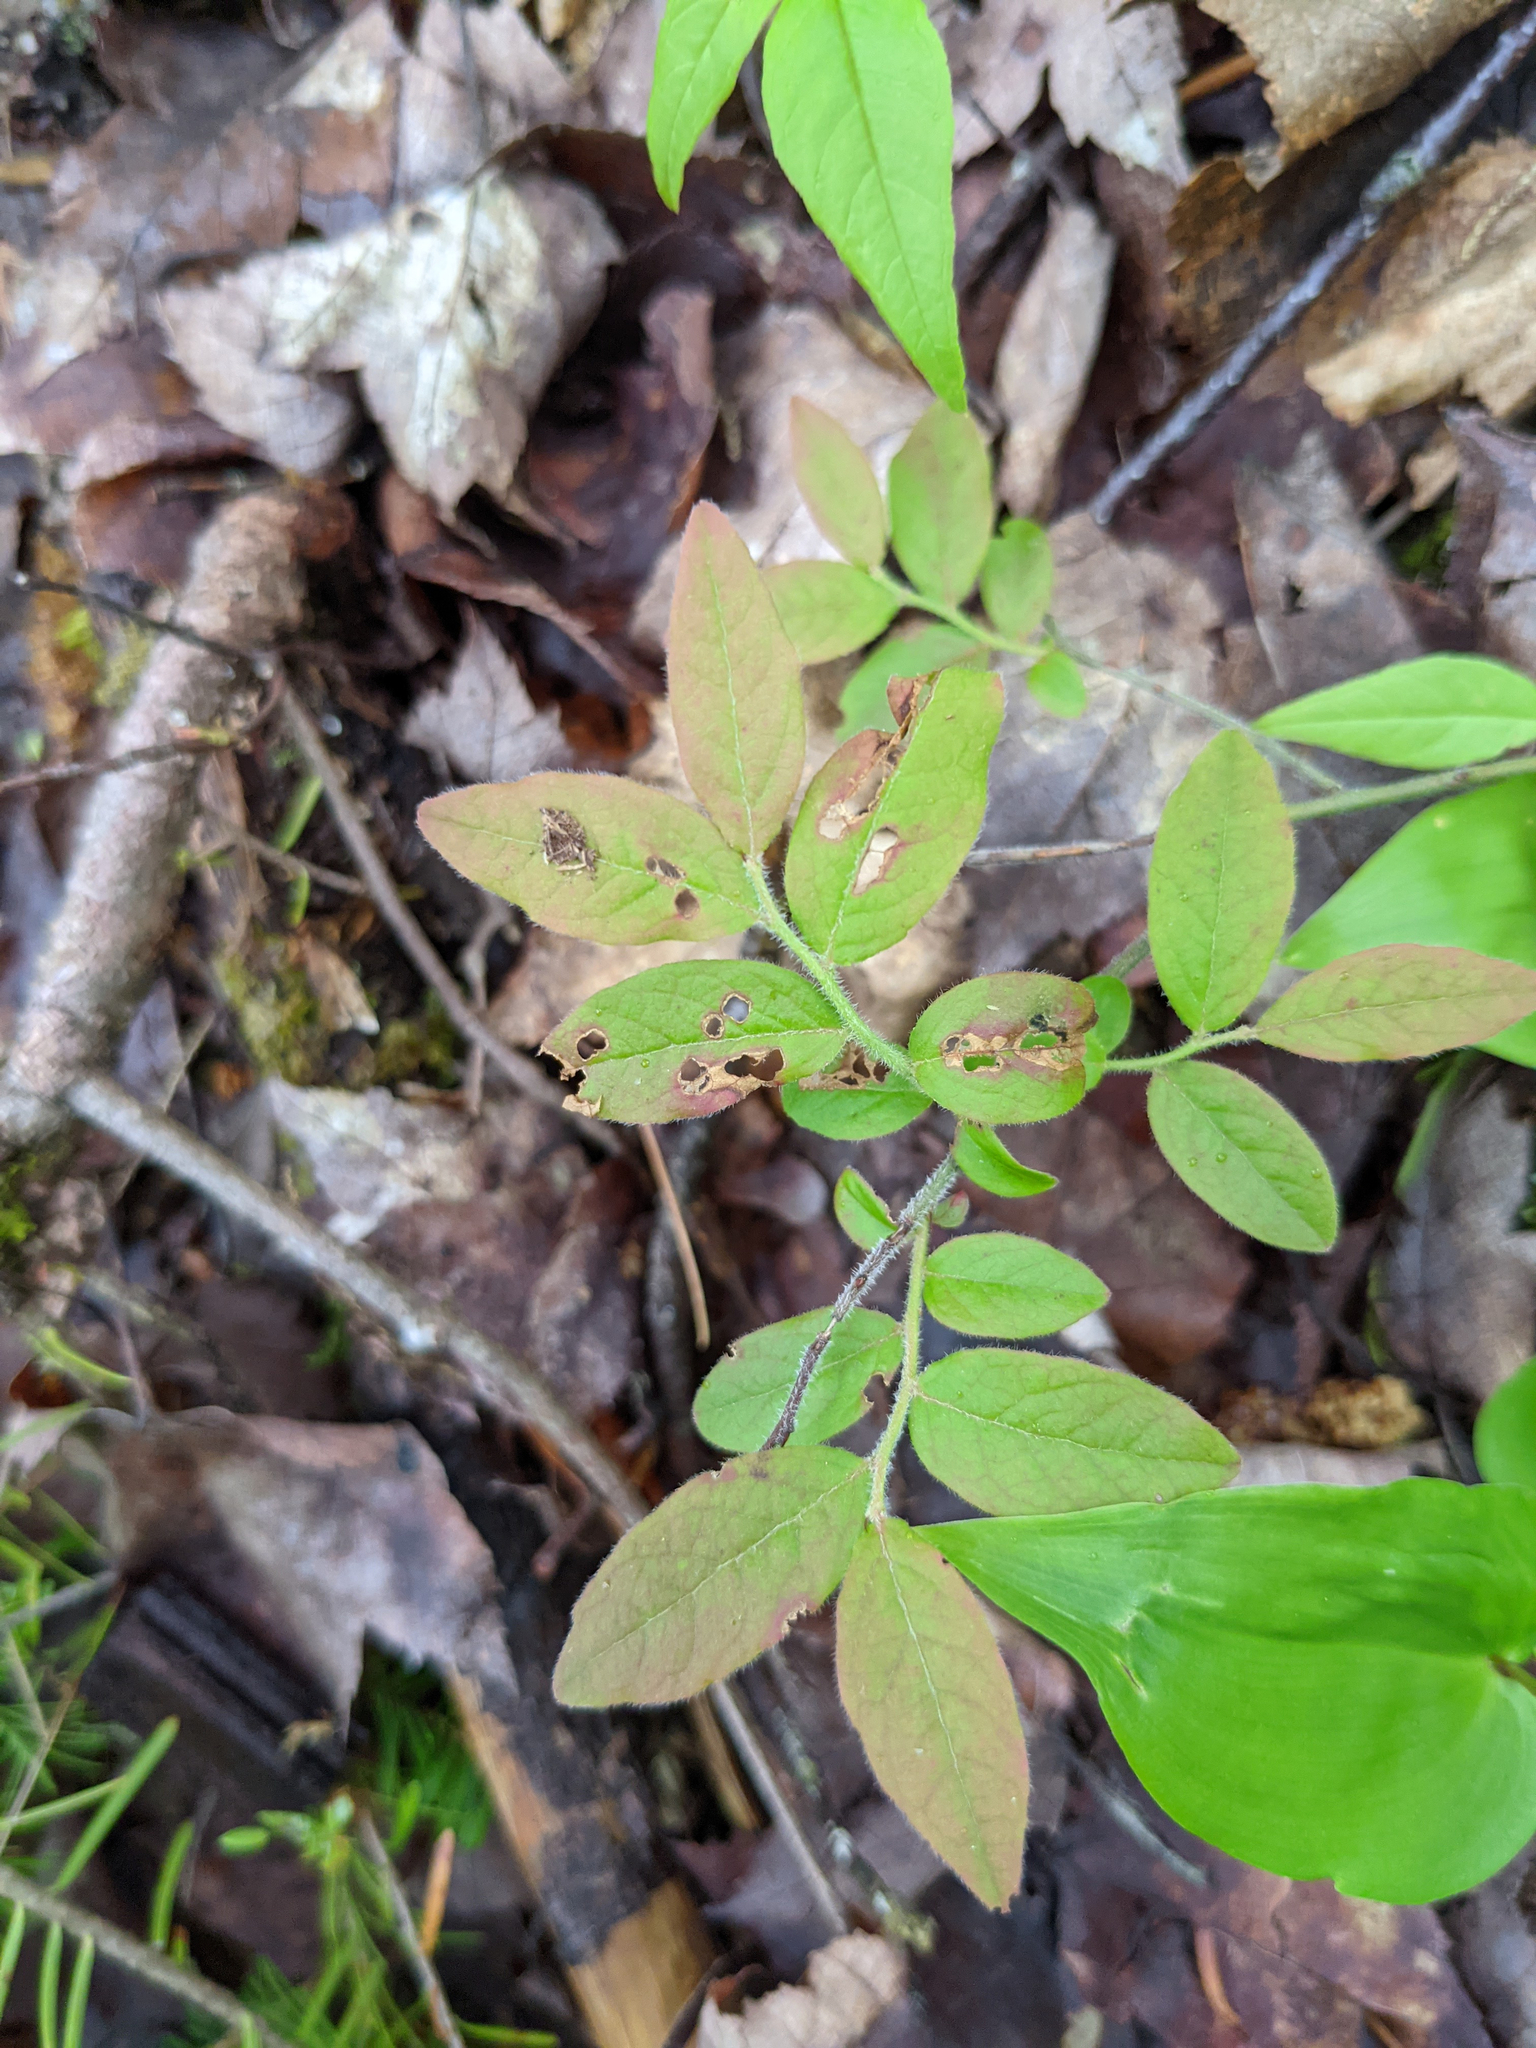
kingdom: Plantae
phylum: Tracheophyta
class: Magnoliopsida
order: Ericales
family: Ericaceae
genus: Vaccinium
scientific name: Vaccinium myrtilloides
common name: Canada blueberry
